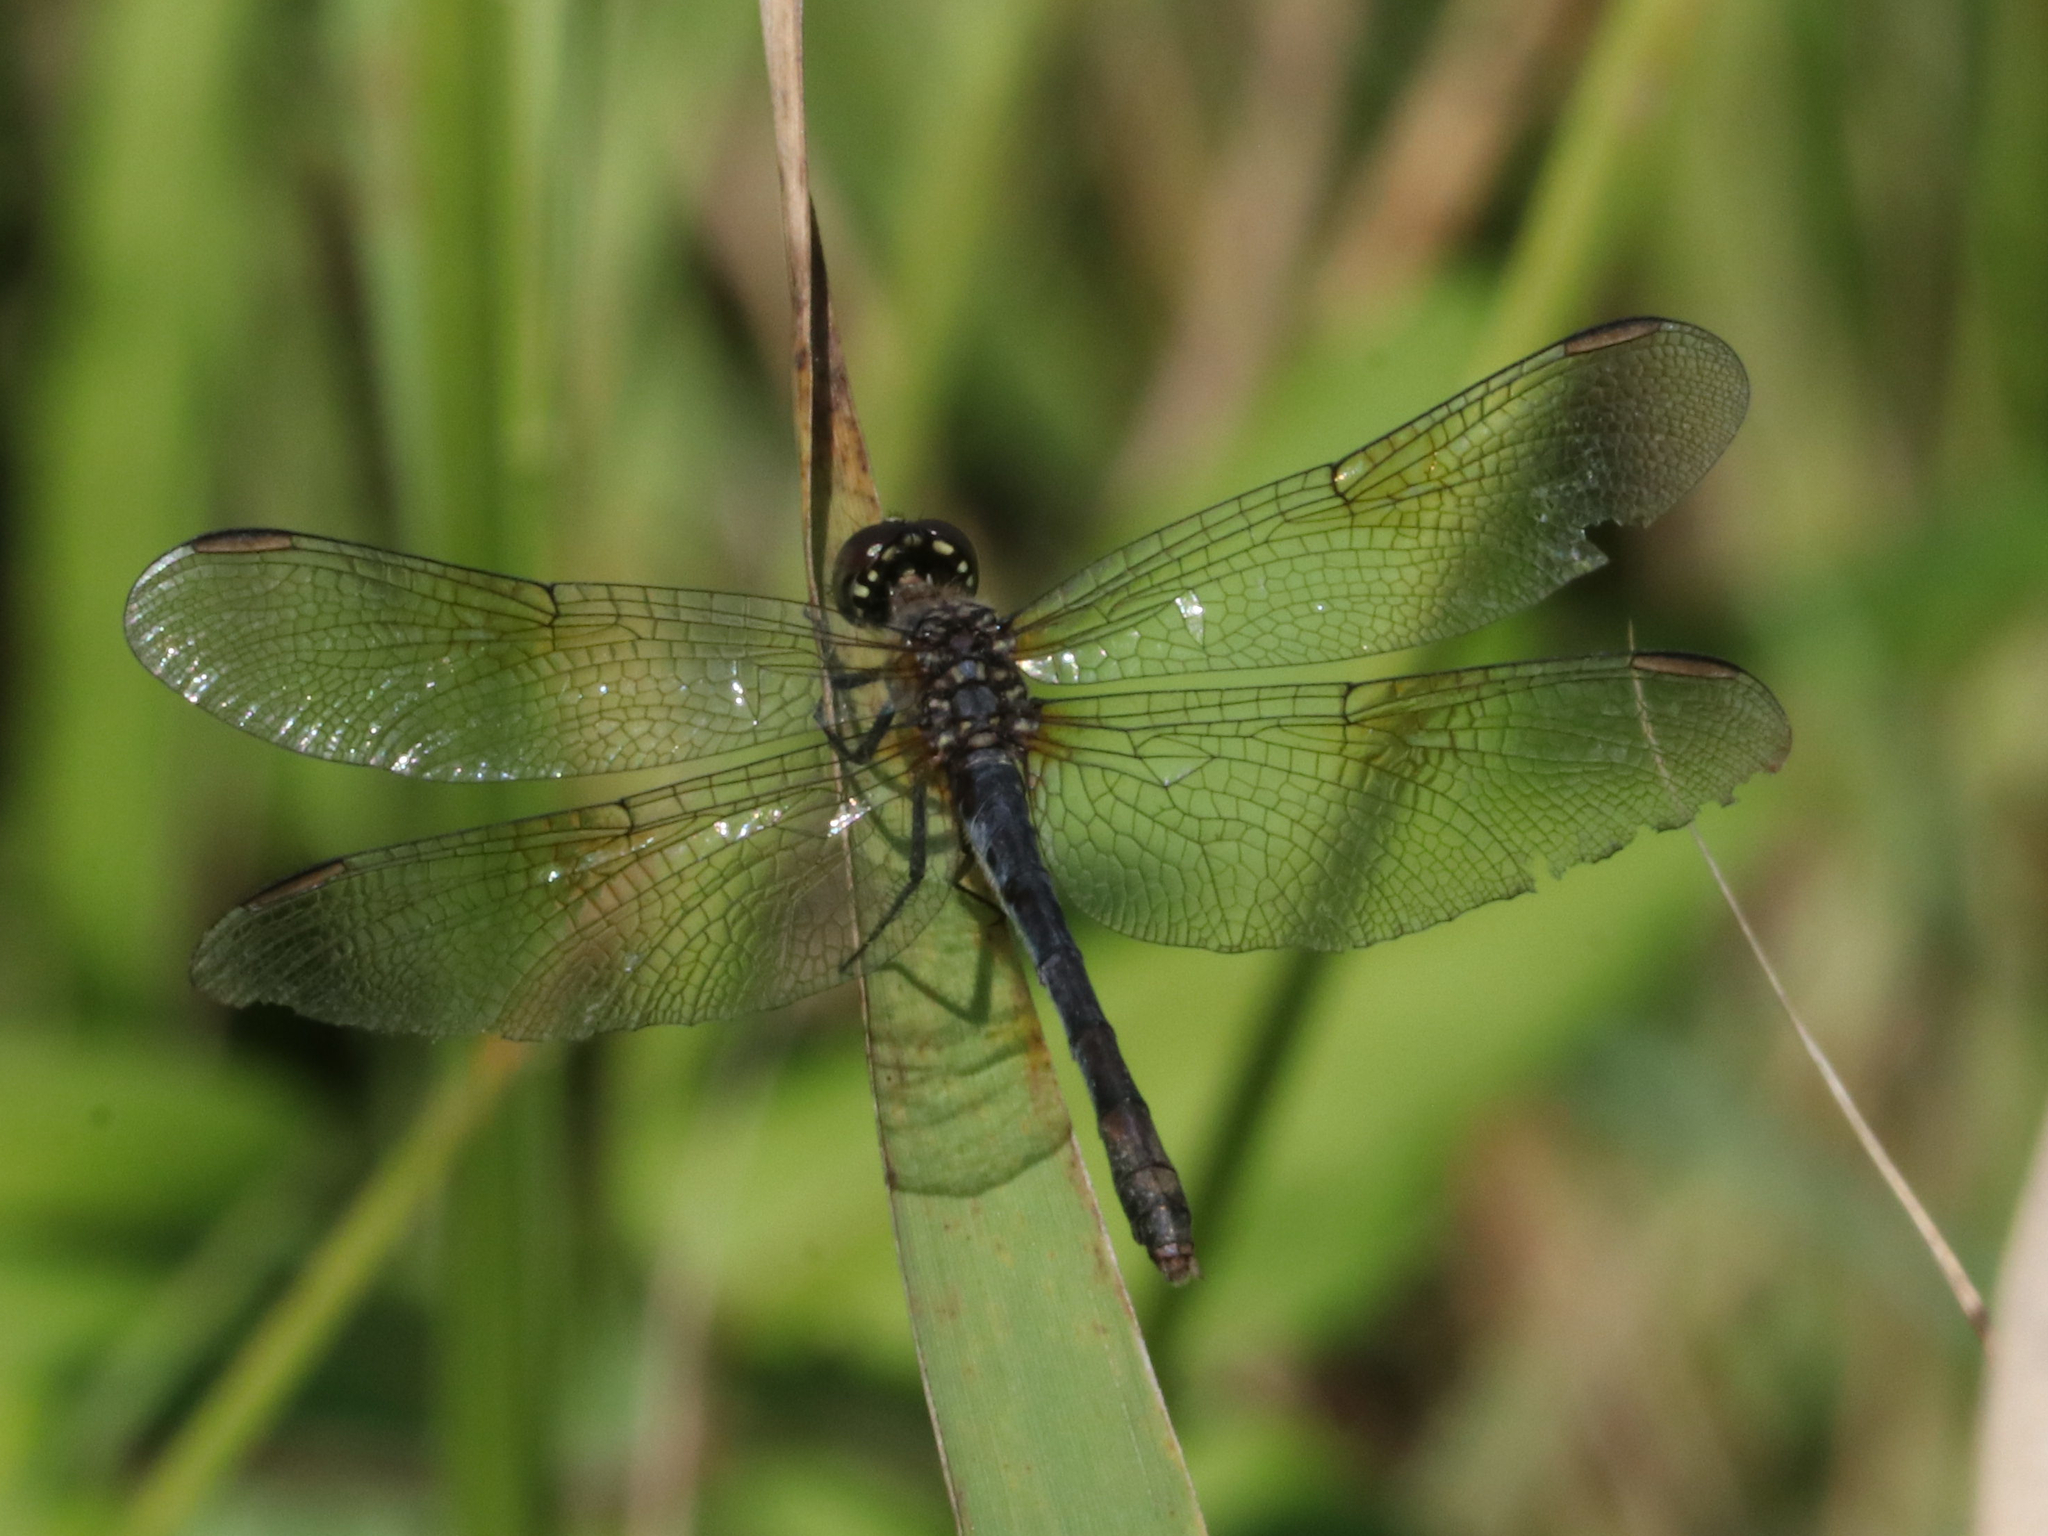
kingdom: Animalia
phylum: Arthropoda
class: Insecta
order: Odonata
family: Libellulidae
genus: Erythrodiplax
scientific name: Erythrodiplax berenice
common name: Seaside dragonlet
